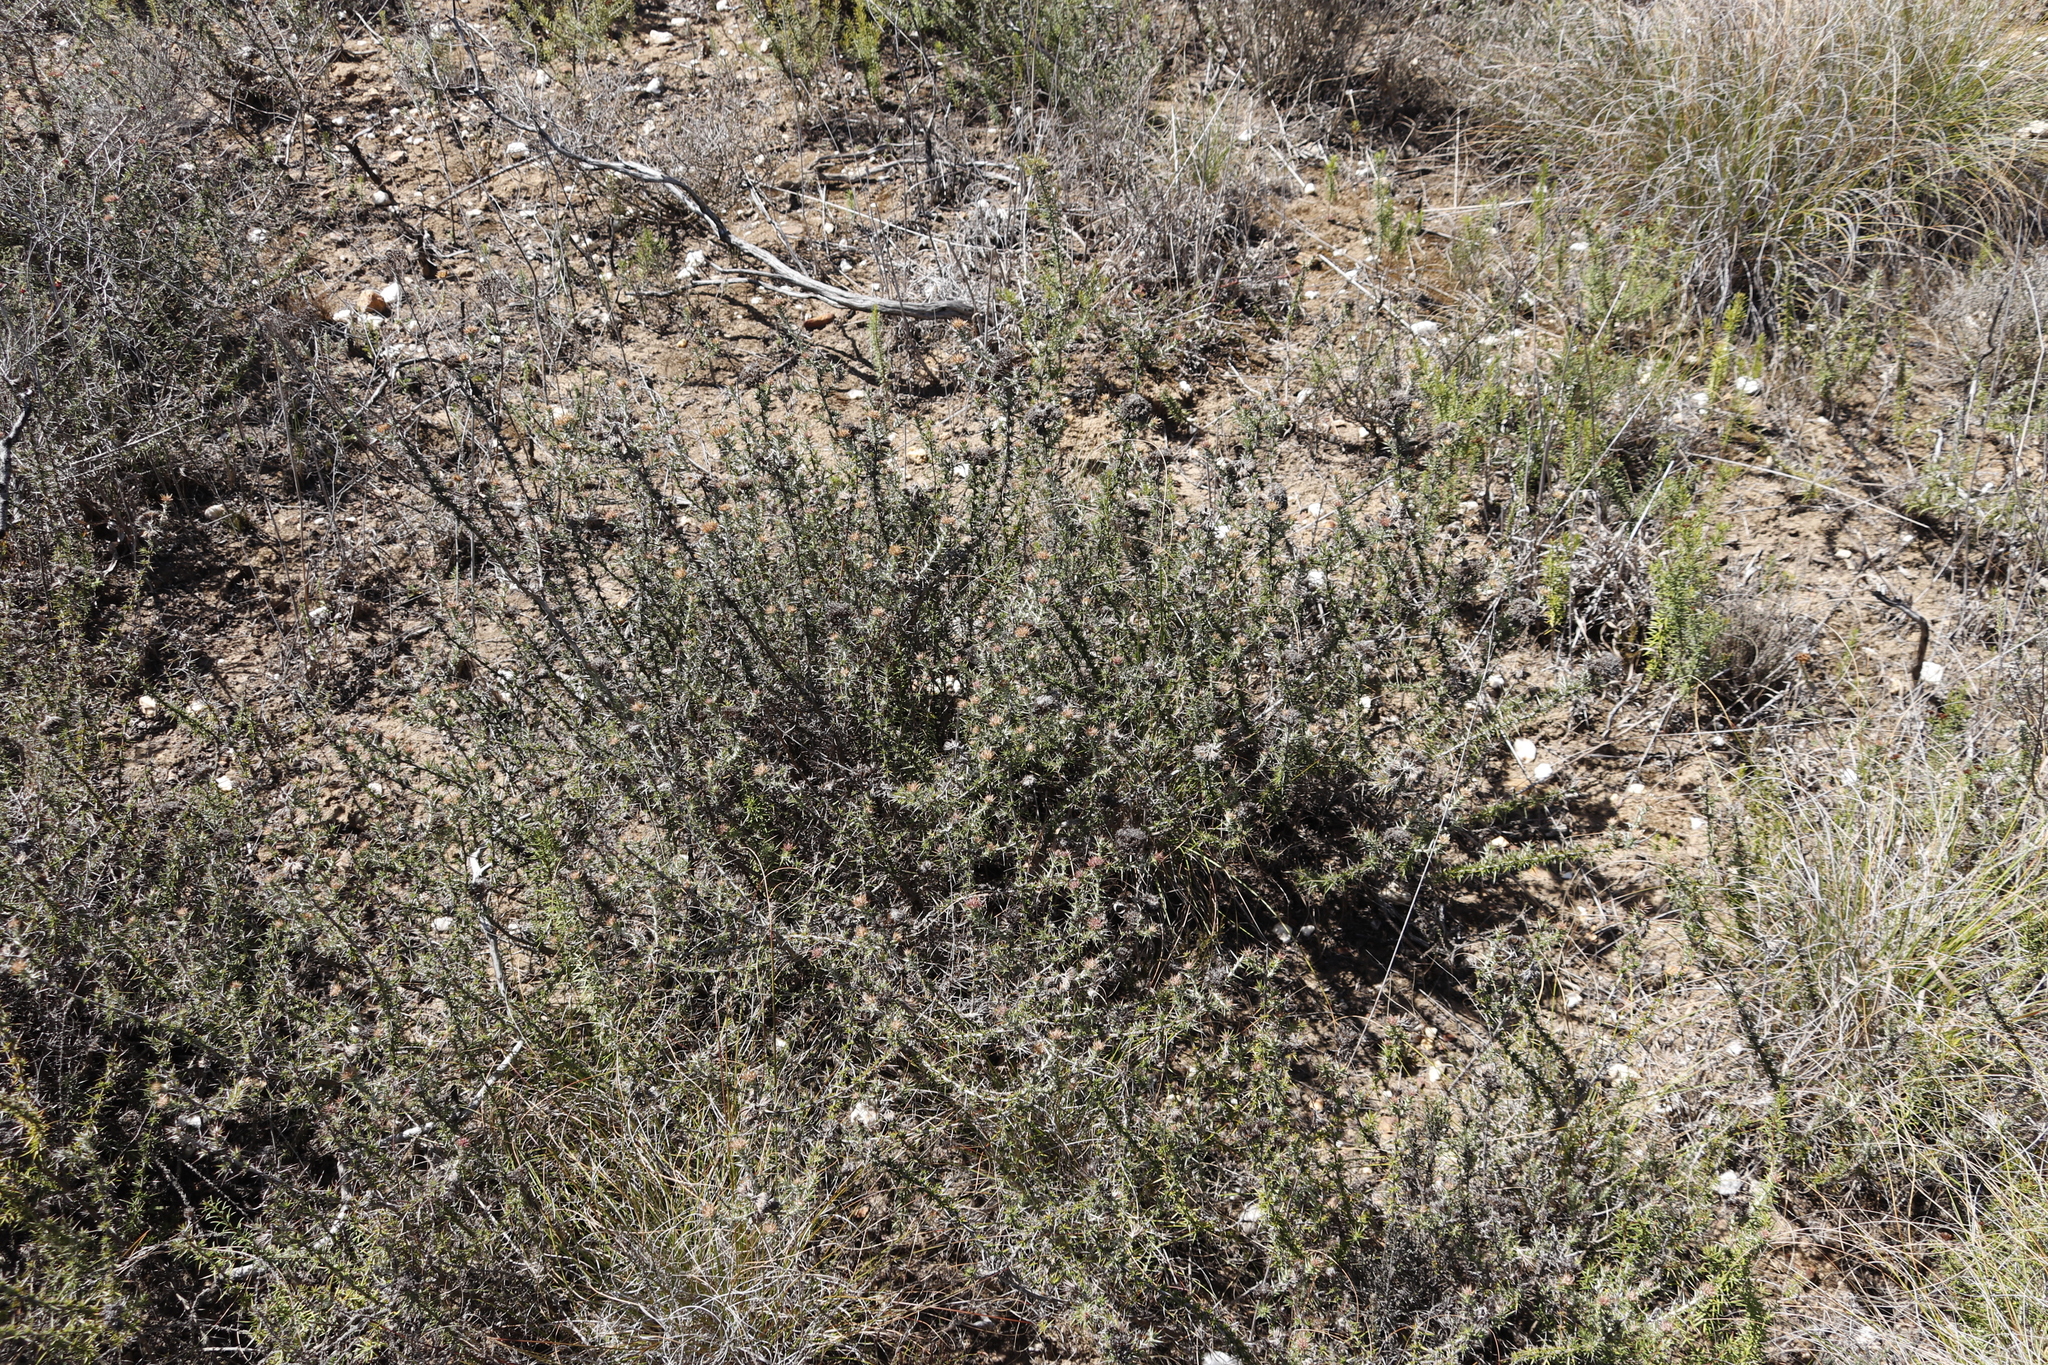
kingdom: Plantae
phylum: Tracheophyta
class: Magnoliopsida
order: Asterales
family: Asteraceae
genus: Metalasia
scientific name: Metalasia acuta
